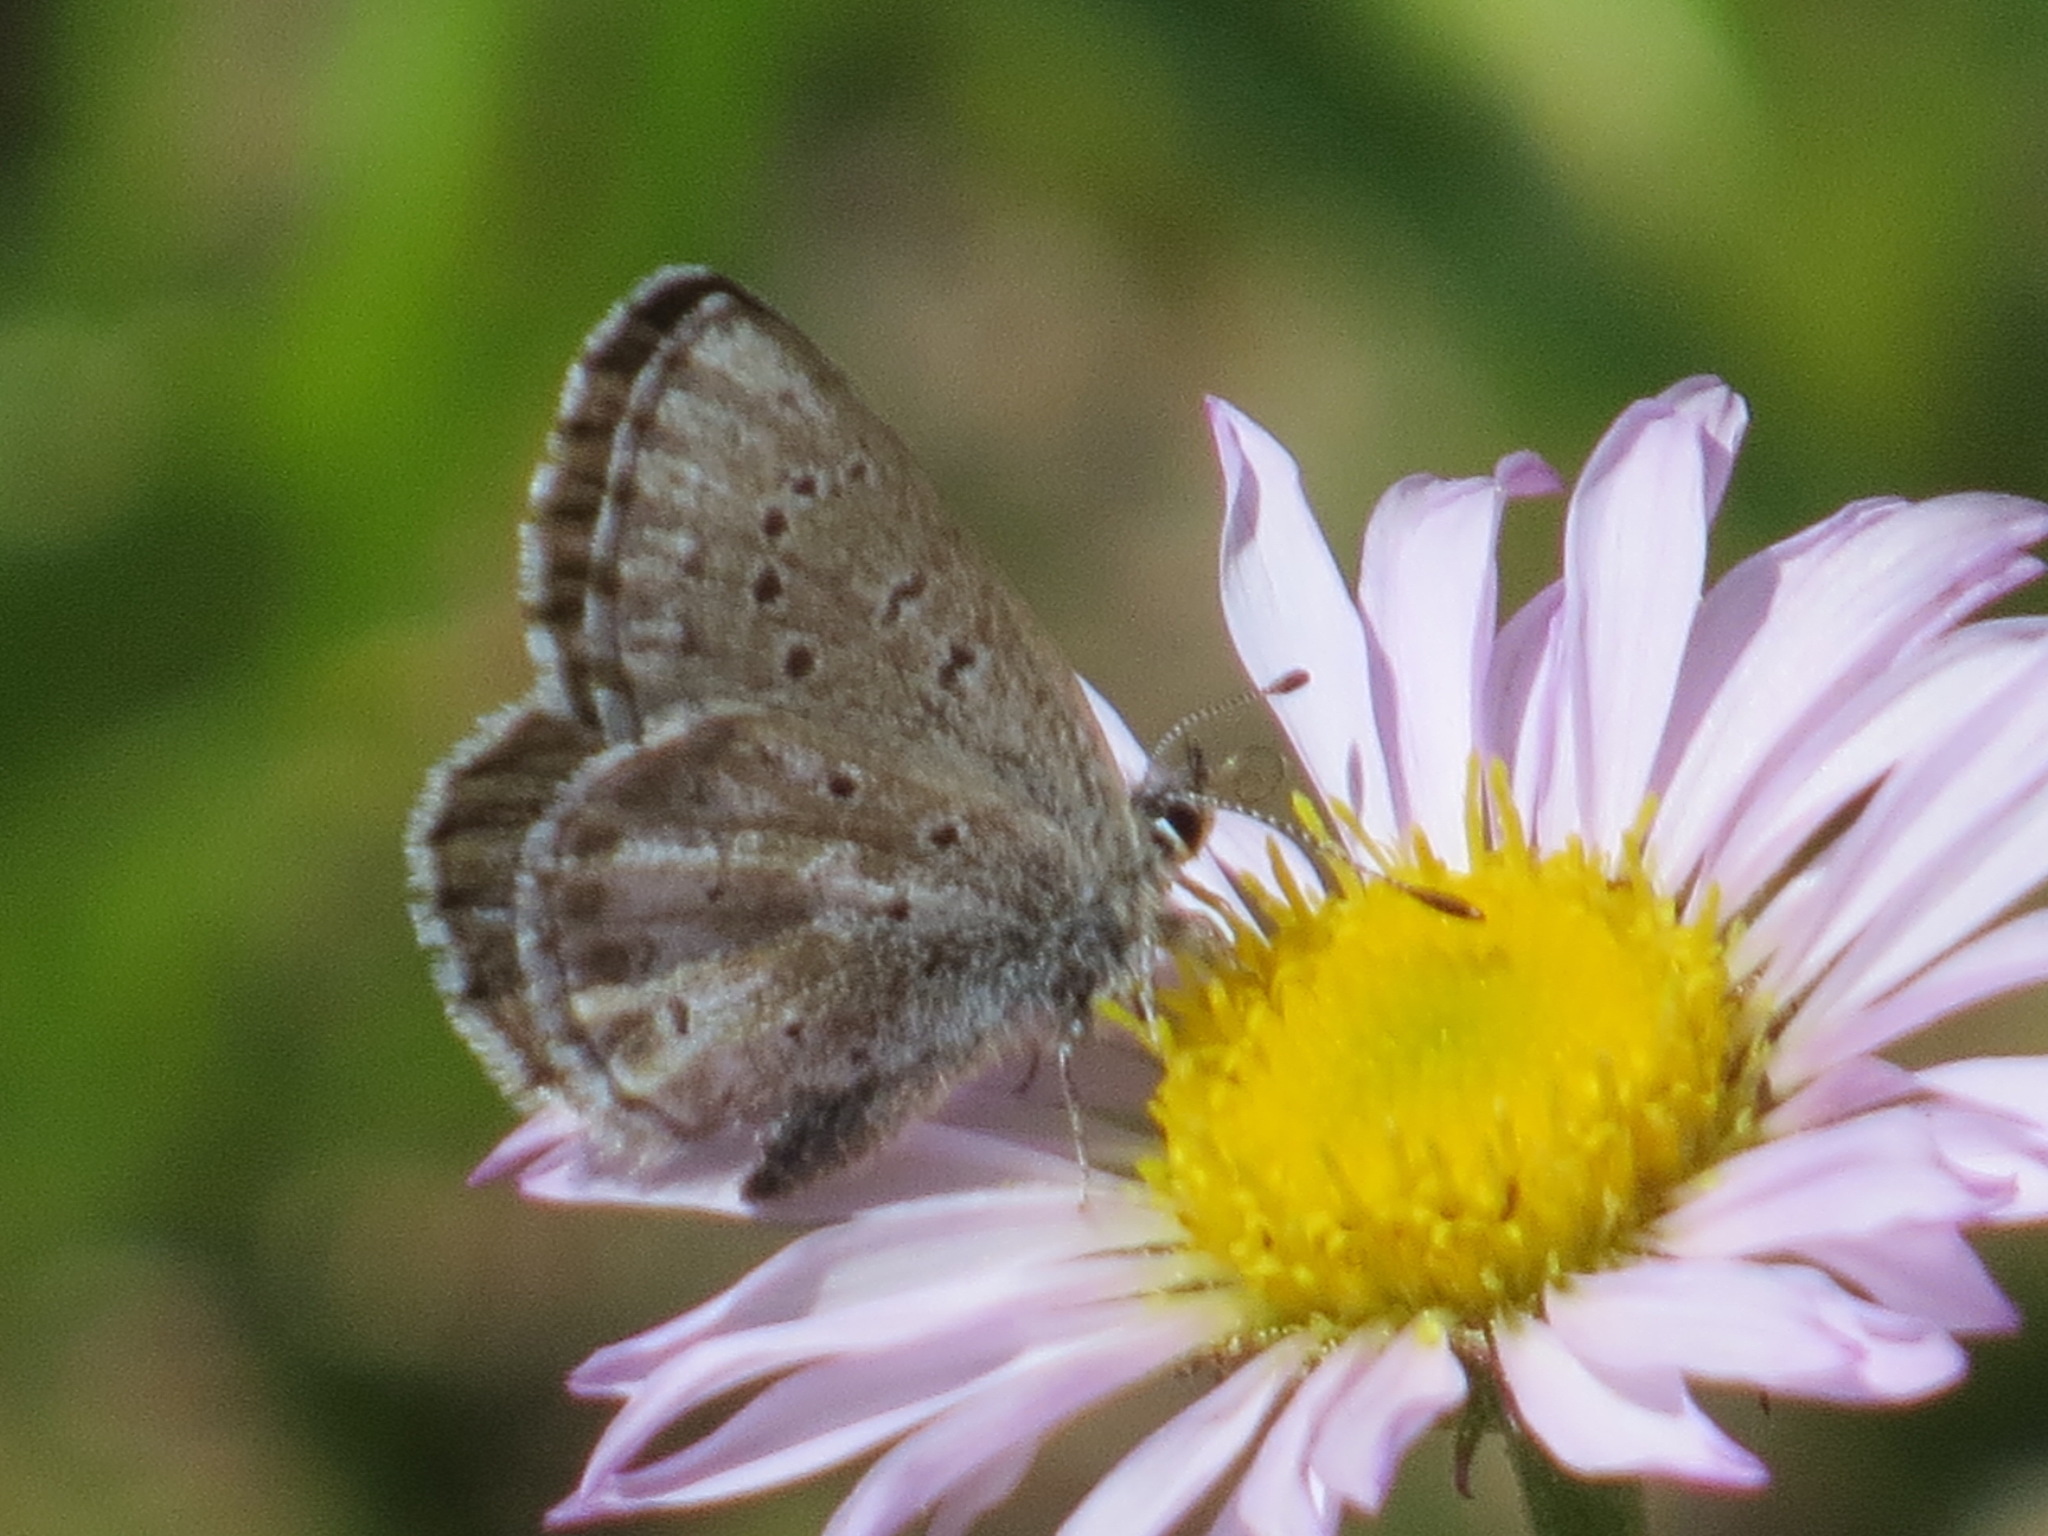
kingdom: Animalia
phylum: Arthropoda
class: Insecta
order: Lepidoptera
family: Lycaenidae
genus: Glaucopsyche
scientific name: Glaucopsyche piasus
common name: Arrowhead blue
